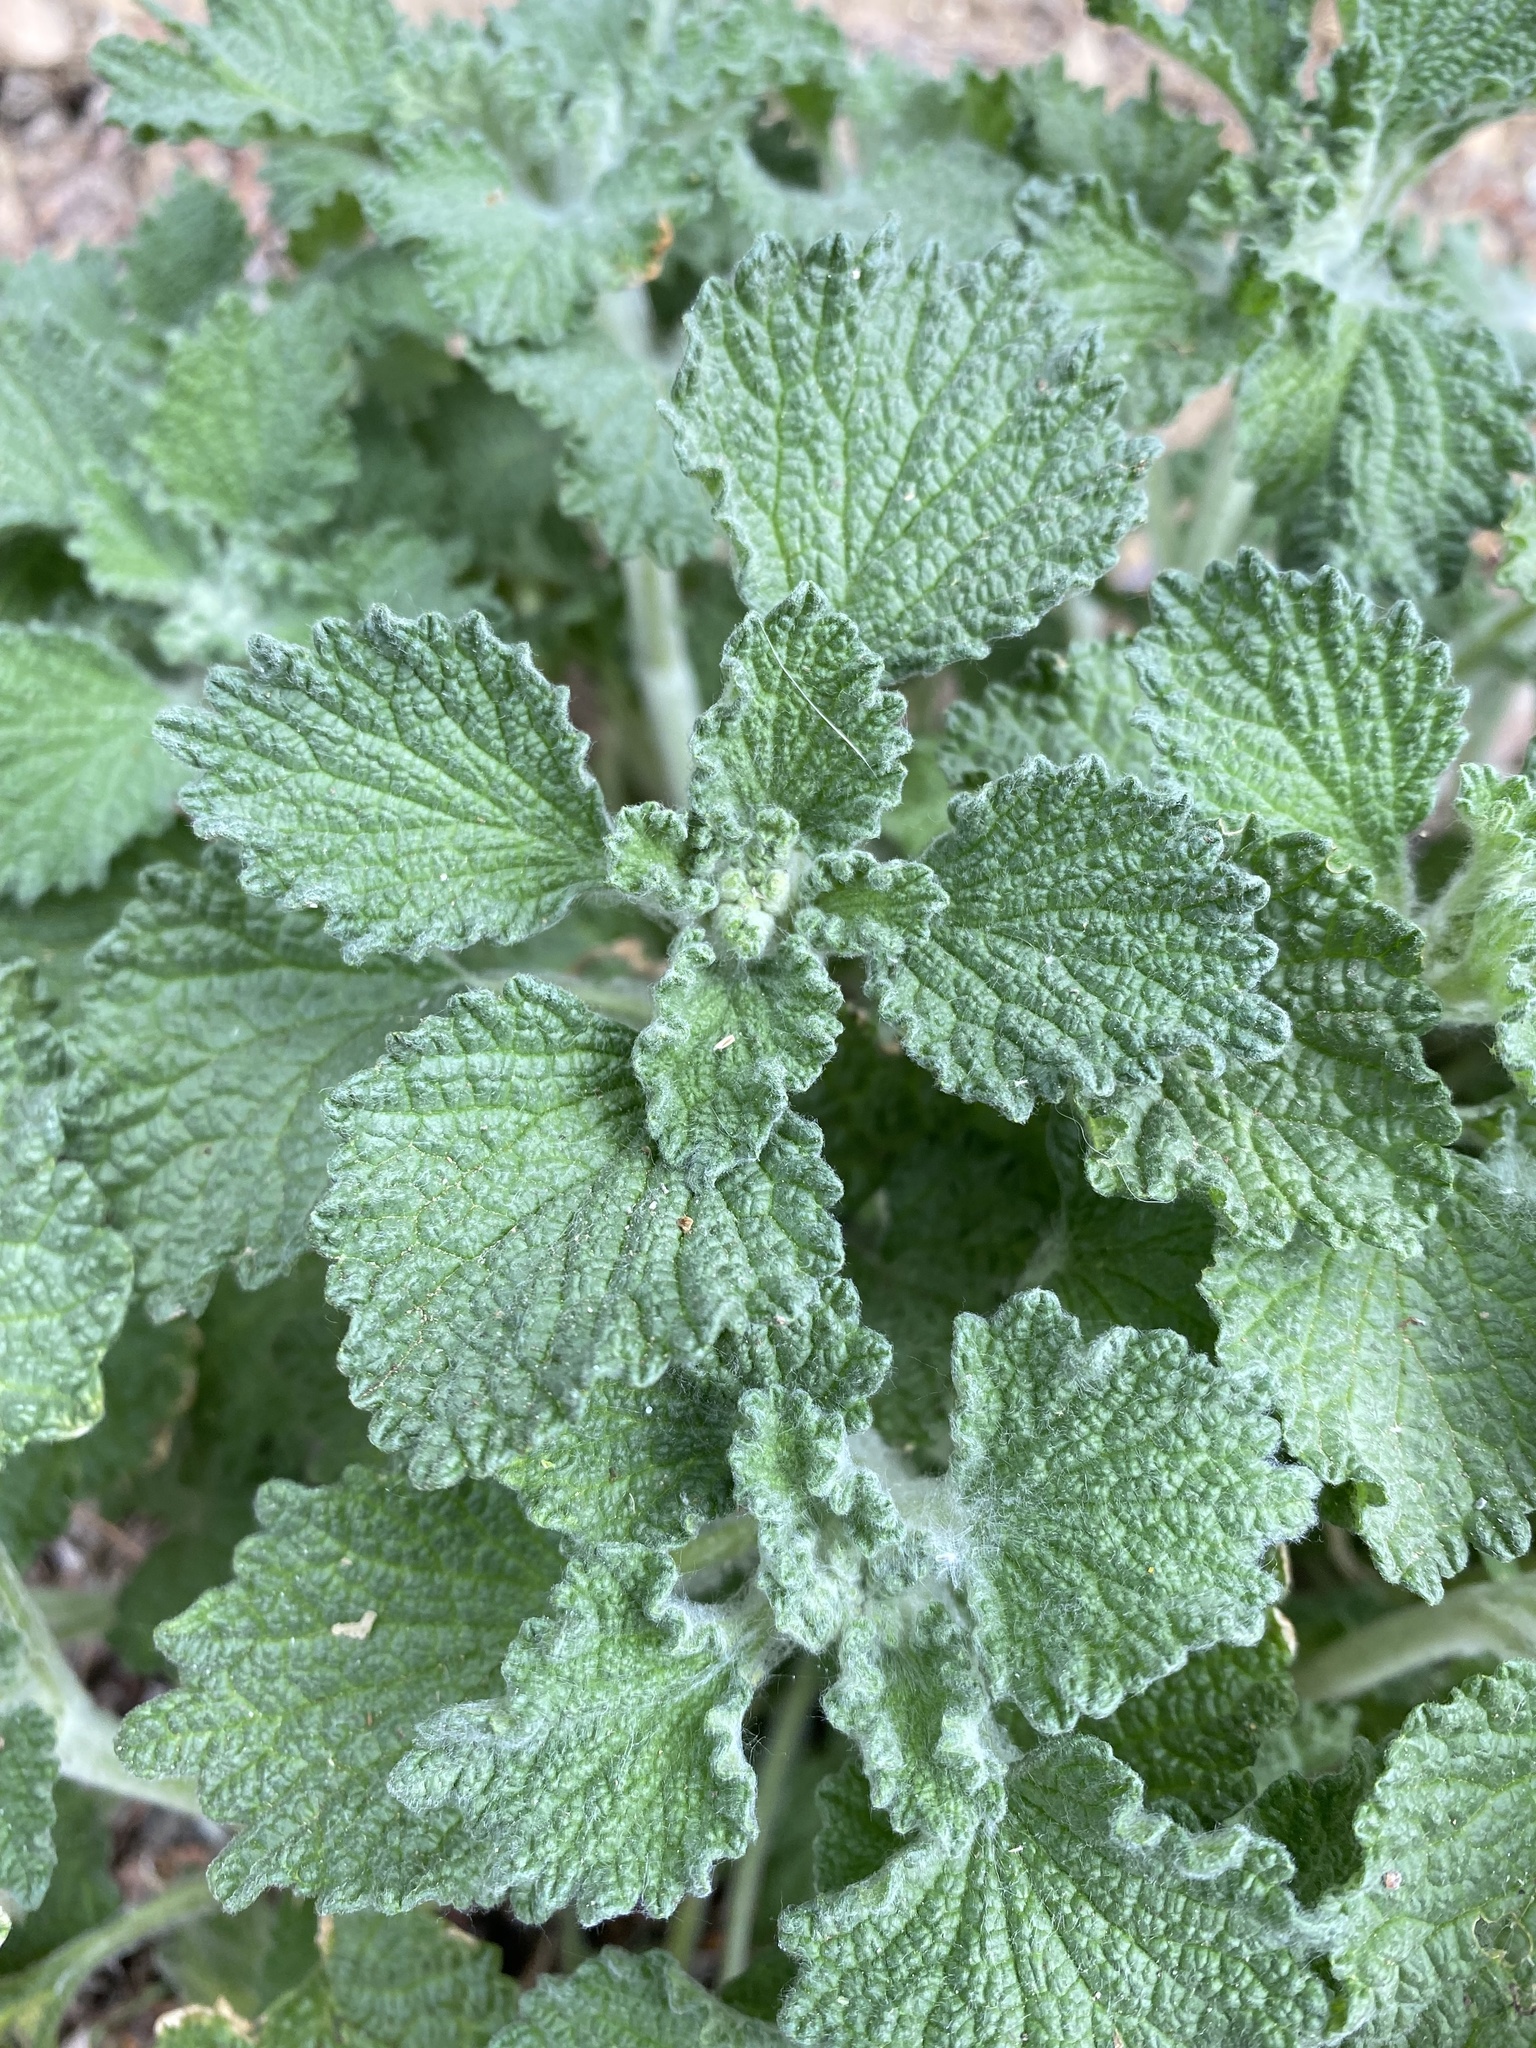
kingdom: Plantae
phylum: Tracheophyta
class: Magnoliopsida
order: Lamiales
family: Lamiaceae
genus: Marrubium
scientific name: Marrubium vulgare
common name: Horehound
